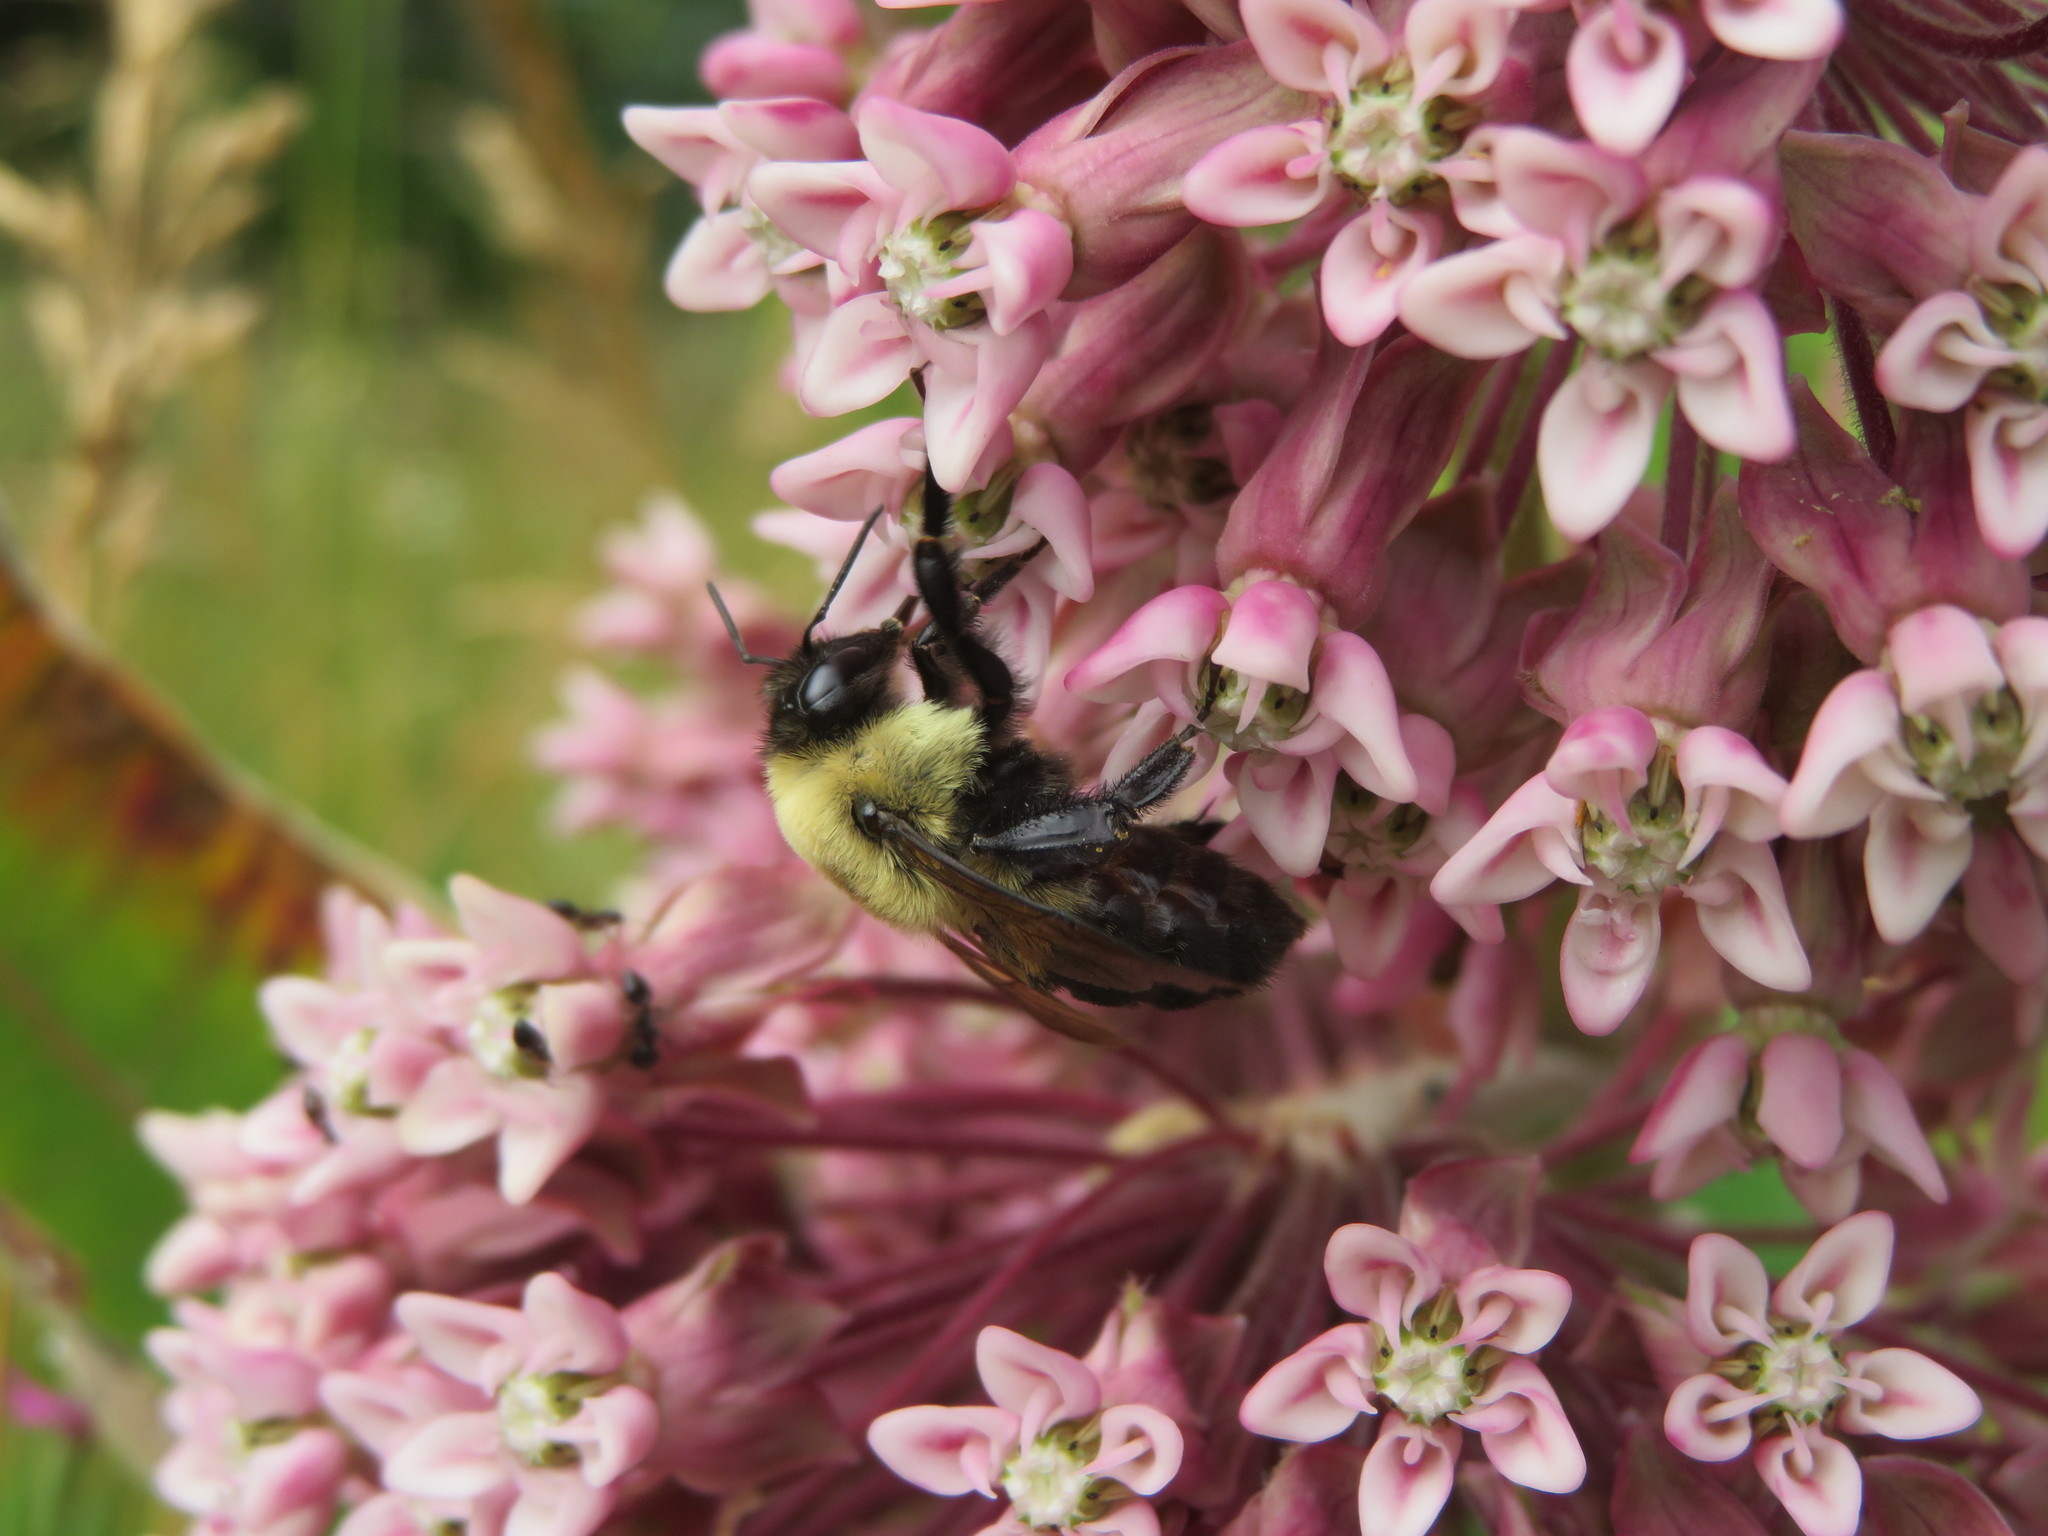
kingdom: Animalia
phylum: Arthropoda
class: Insecta
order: Hymenoptera
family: Apidae
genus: Bombus
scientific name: Bombus griseocollis
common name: Brown-belted bumble bee
